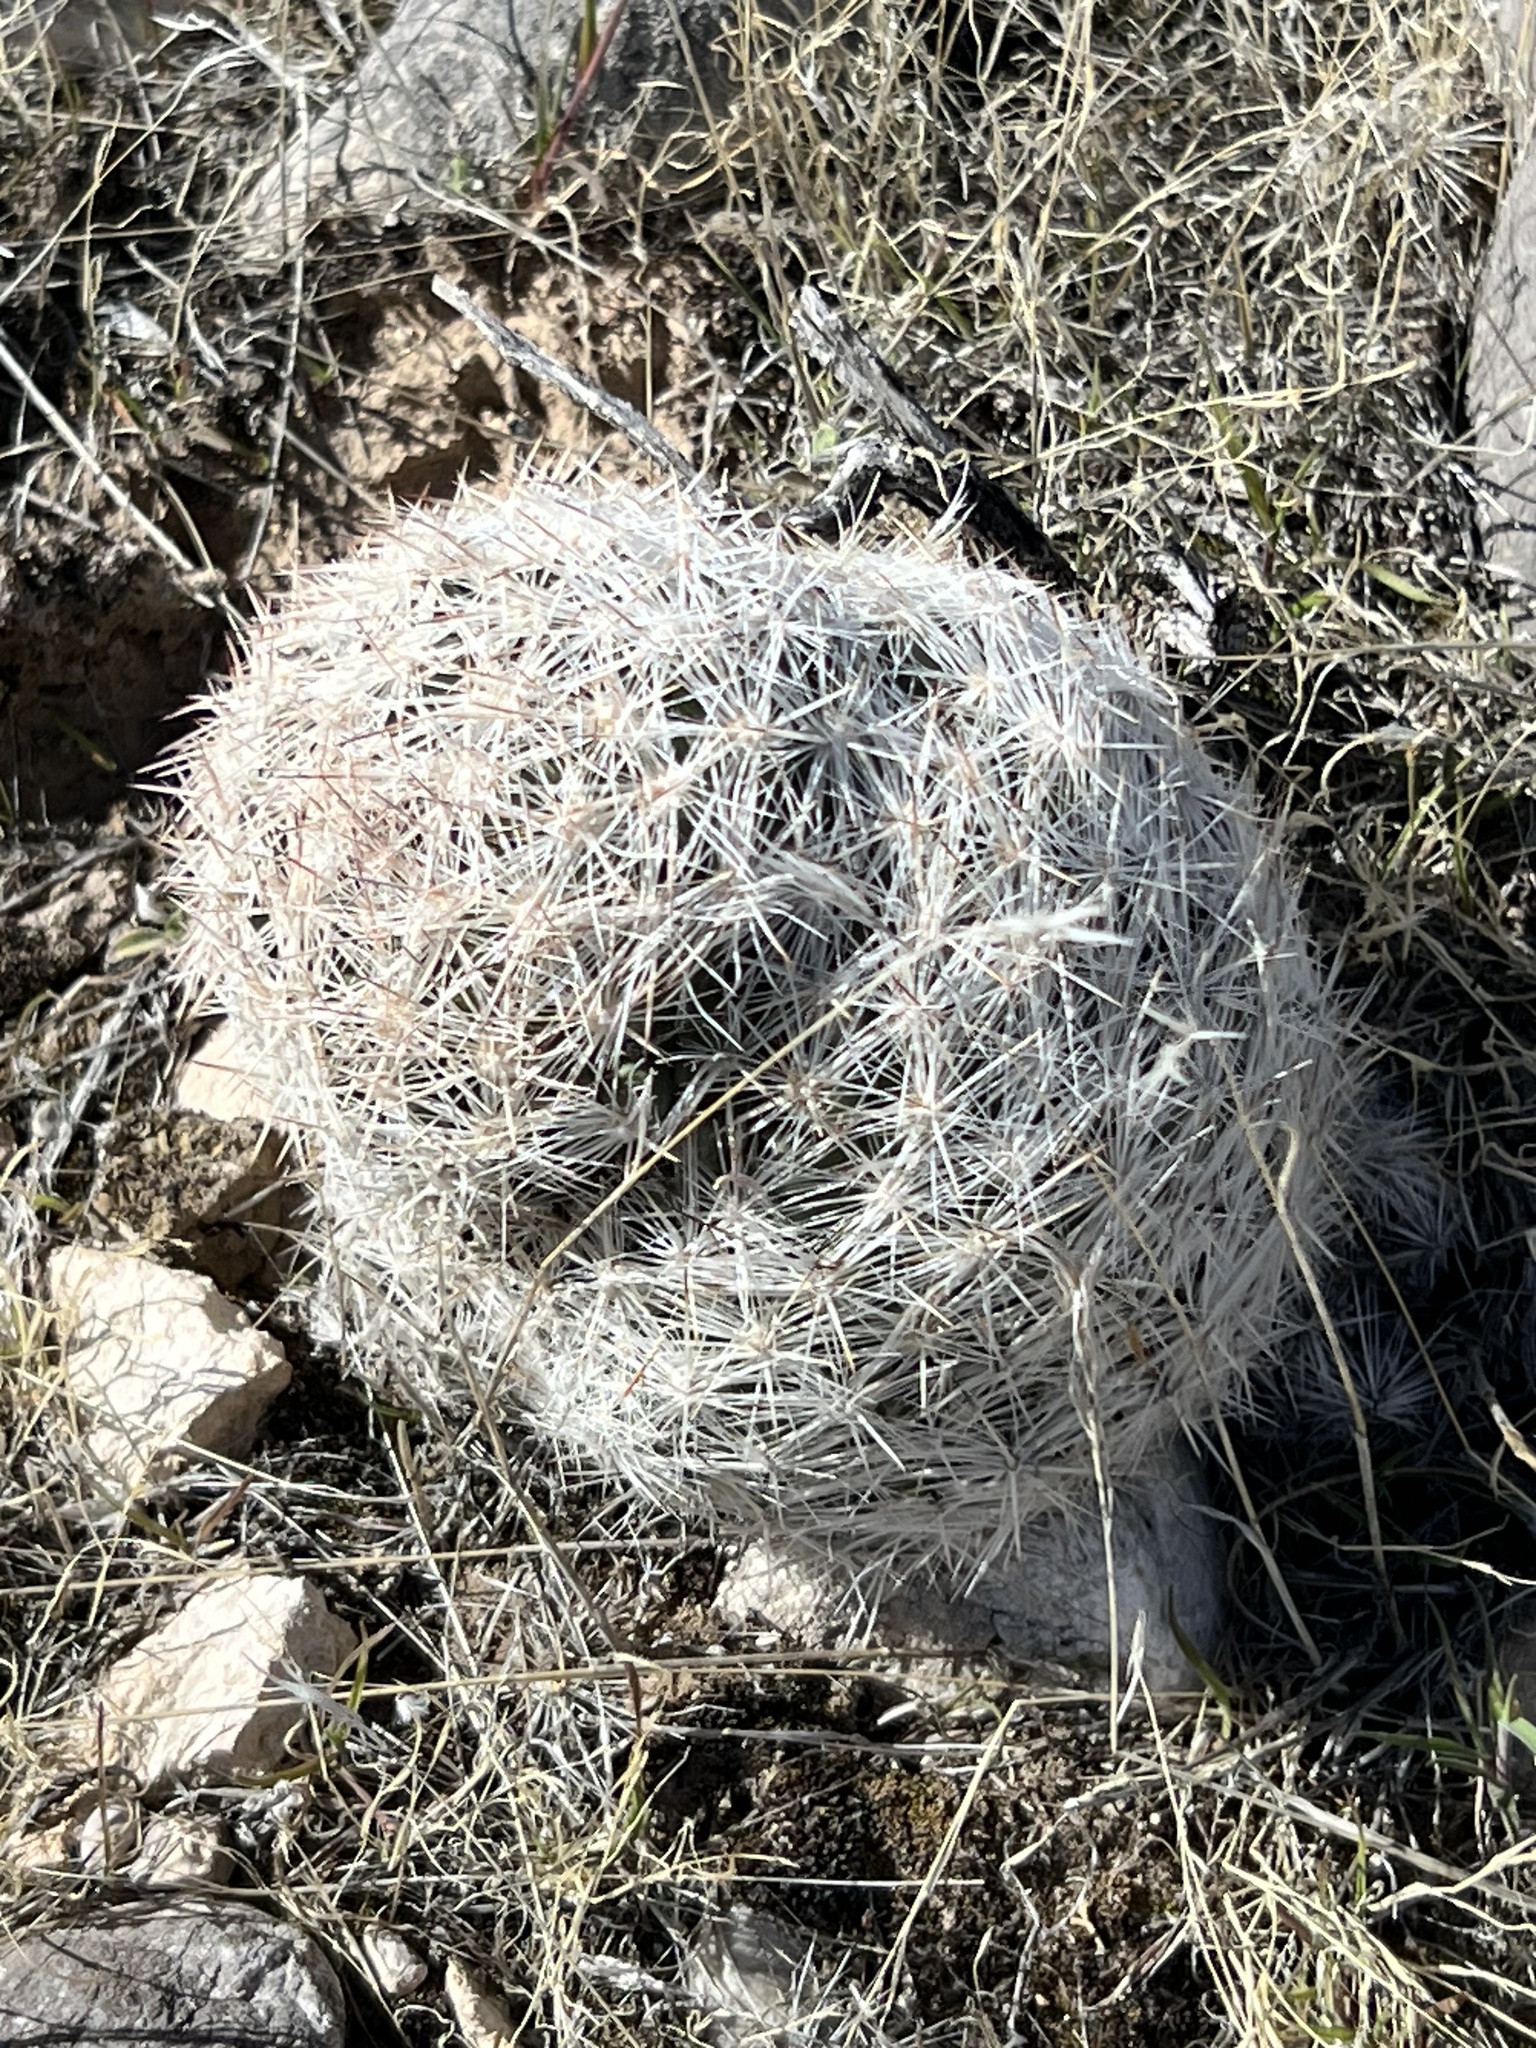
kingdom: Plantae
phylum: Tracheophyta
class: Magnoliopsida
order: Caryophyllales
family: Cactaceae
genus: Pelecyphora
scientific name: Pelecyphora dasyacantha
